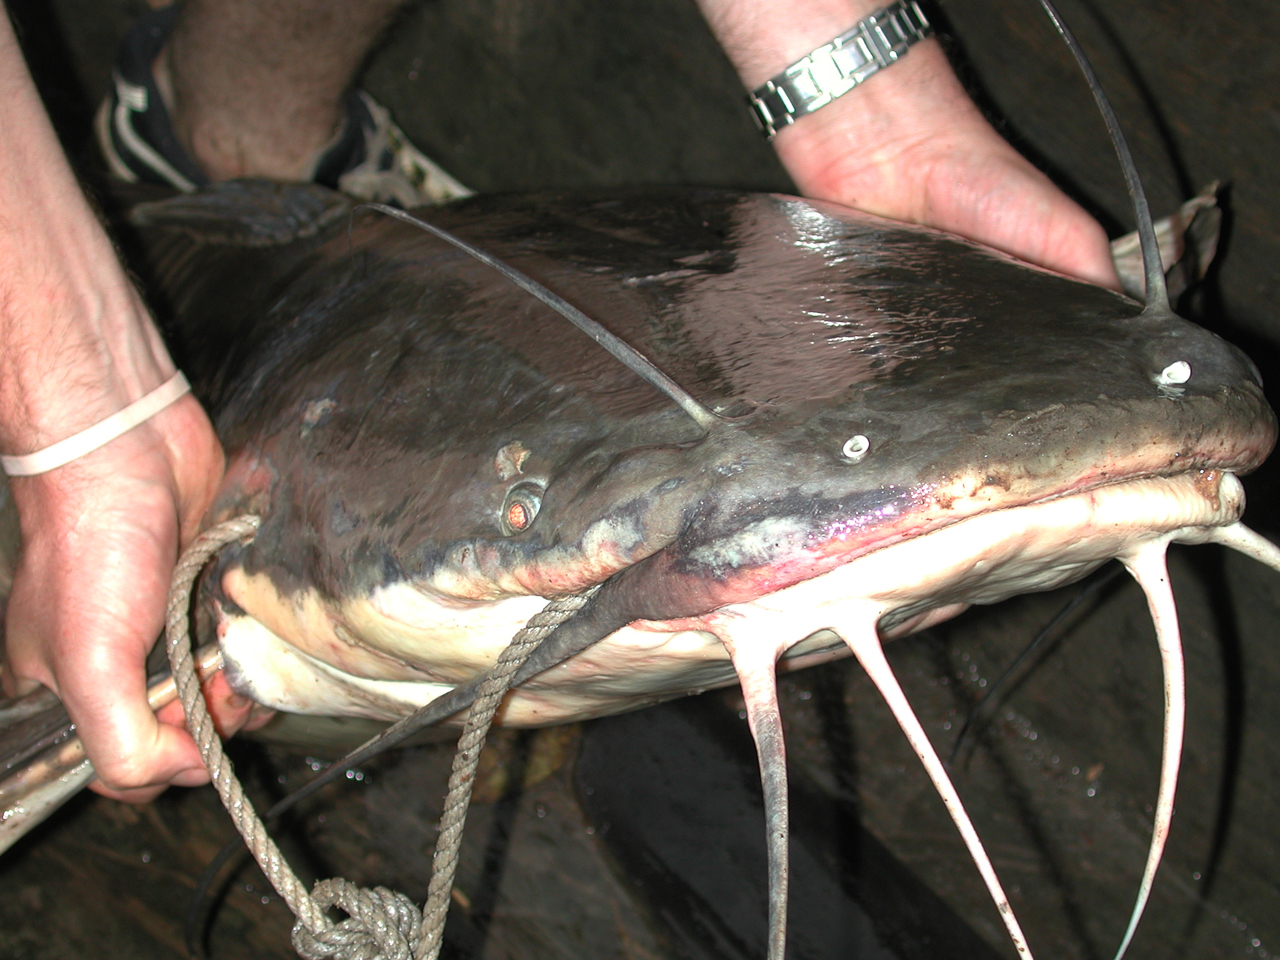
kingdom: Animalia
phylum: Chordata
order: Siluriformes
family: Clariidae
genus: Heterobranchus
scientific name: Heterobranchus longifilis
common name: Catfish
